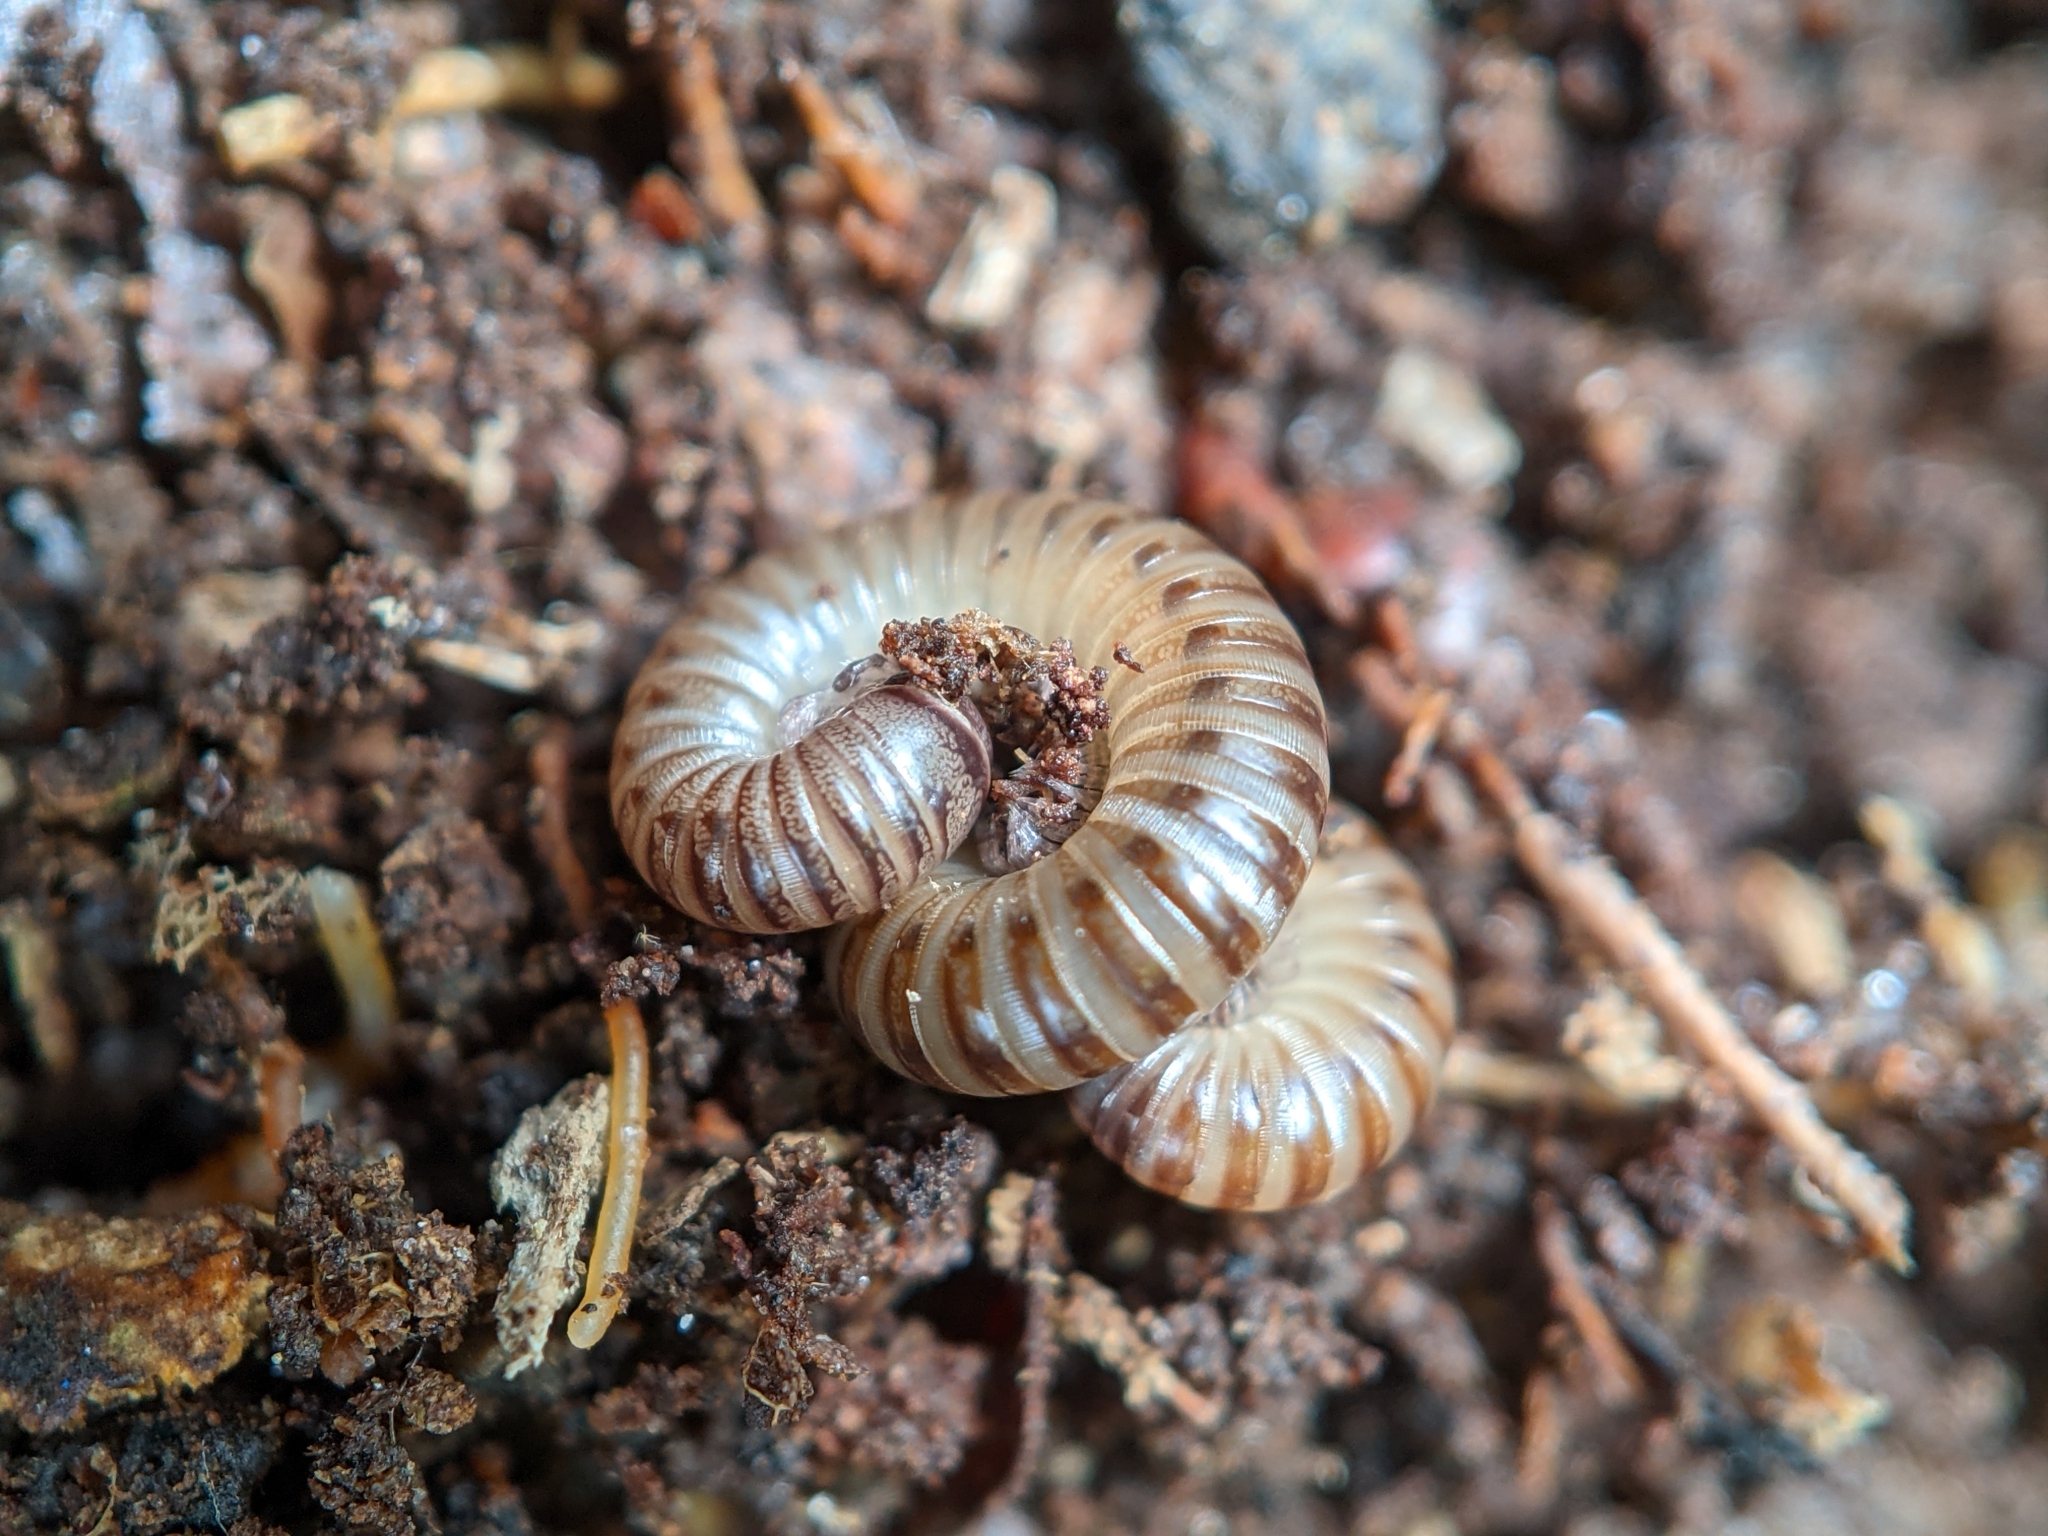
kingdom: Animalia
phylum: Arthropoda
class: Diplopoda
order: Julida
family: Julidae
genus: Cylindroiulus
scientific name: Cylindroiulus punctatus
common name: Blunt-tailed millipede
